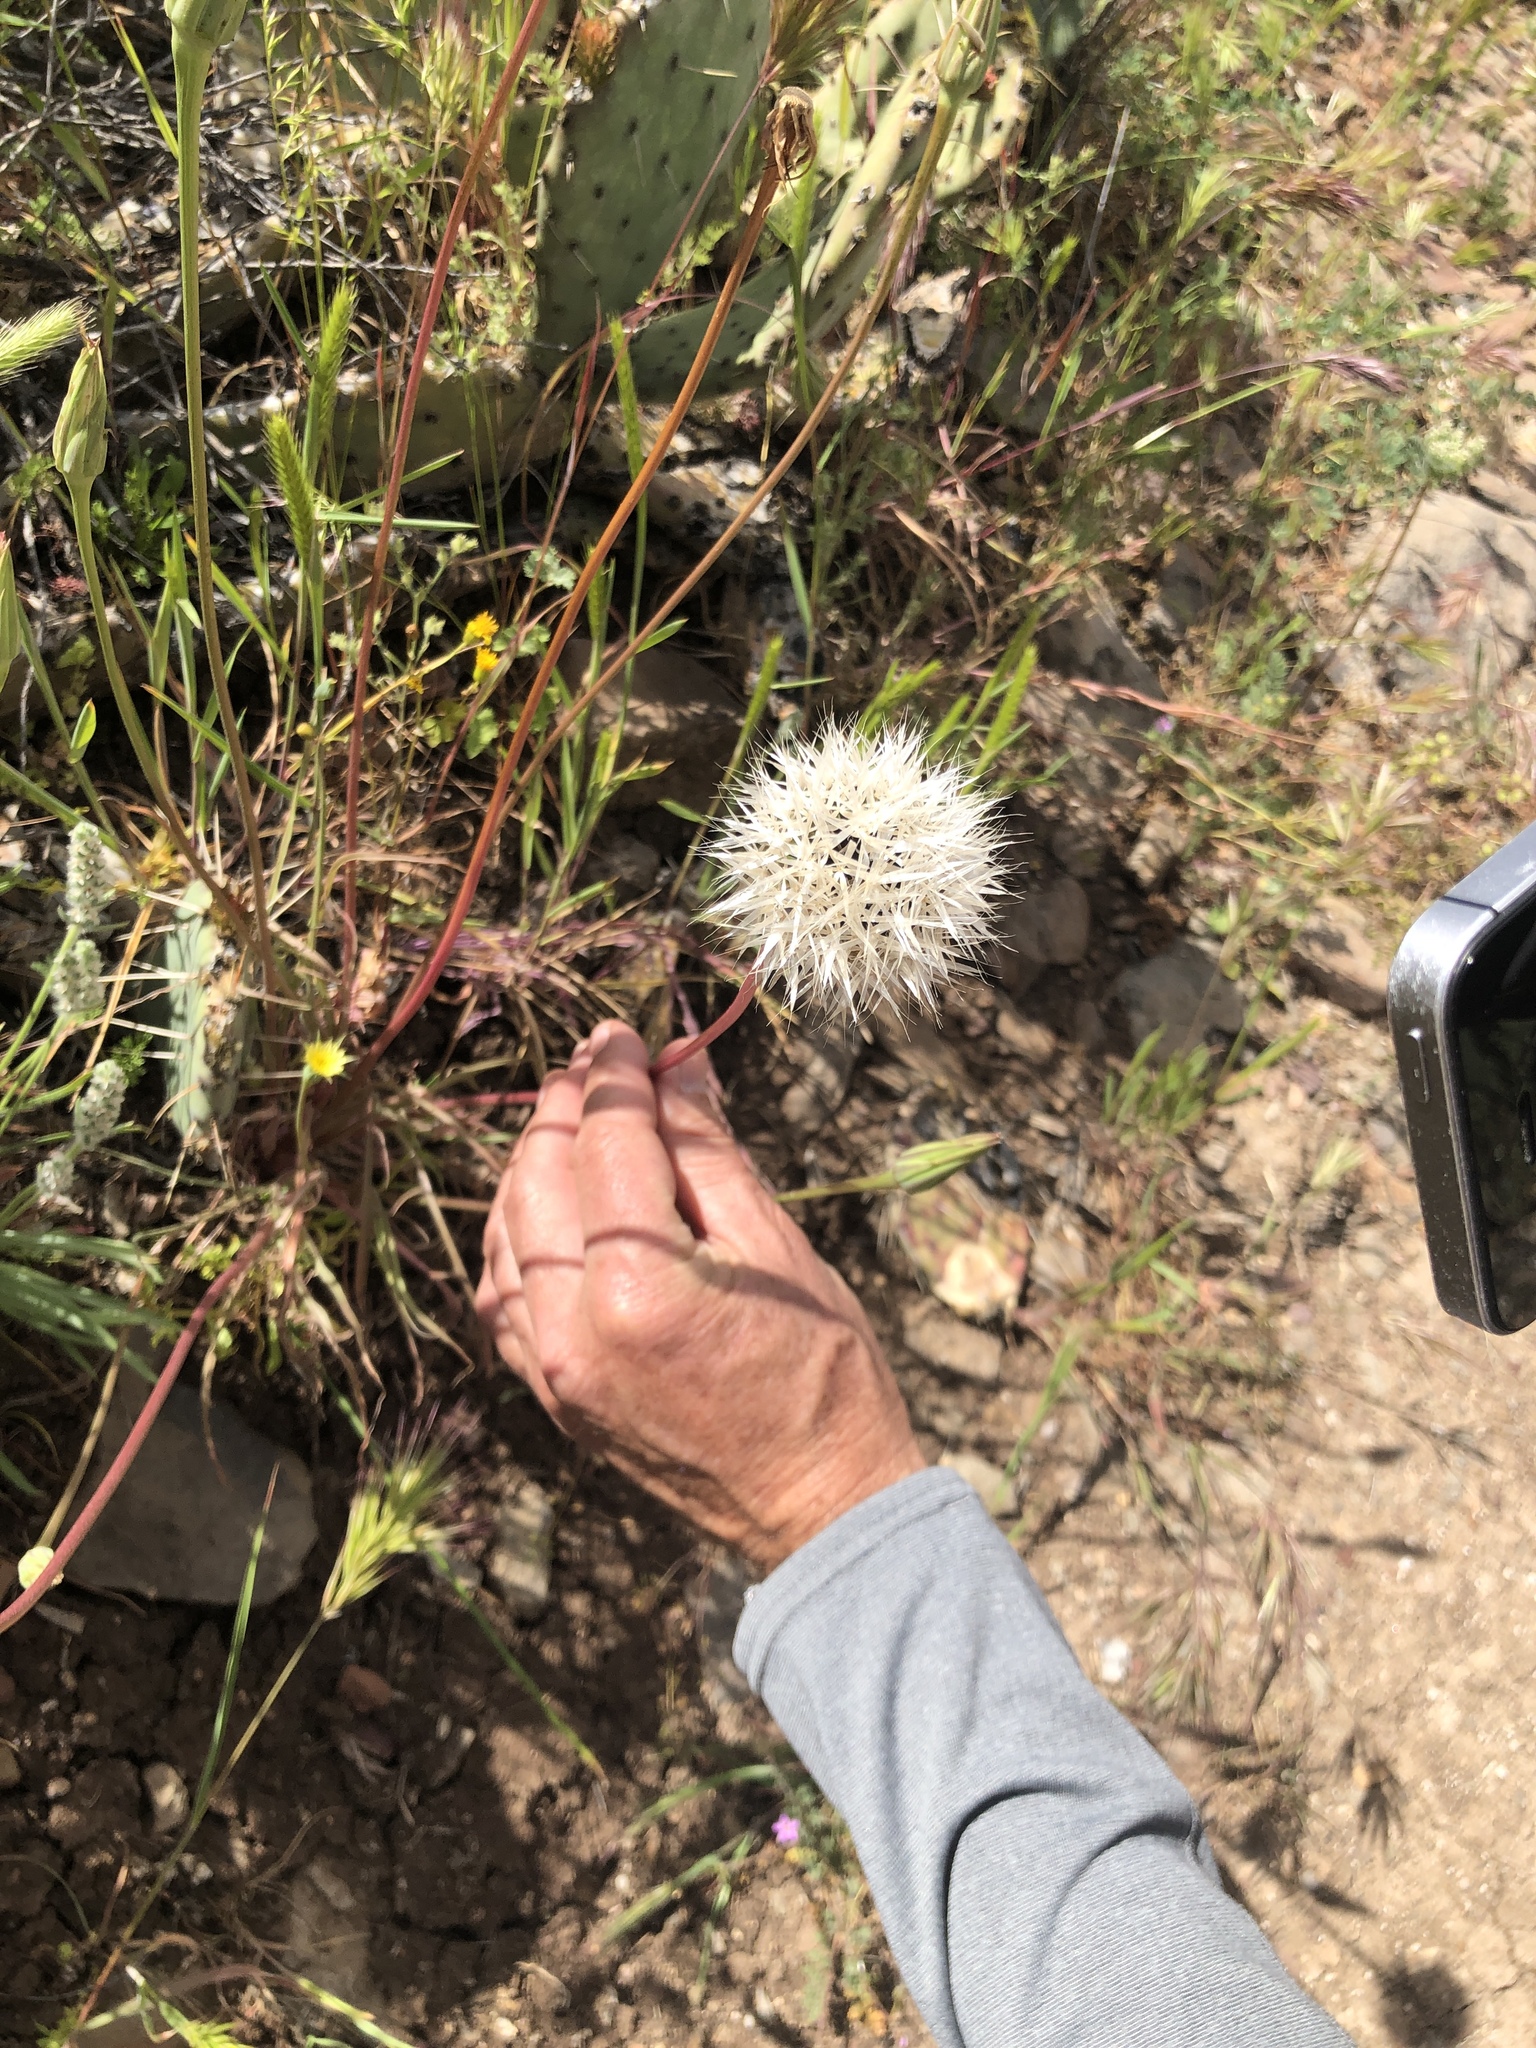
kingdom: Plantae
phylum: Tracheophyta
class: Magnoliopsida
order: Asterales
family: Asteraceae
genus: Microseris
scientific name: Microseris lindleyi
